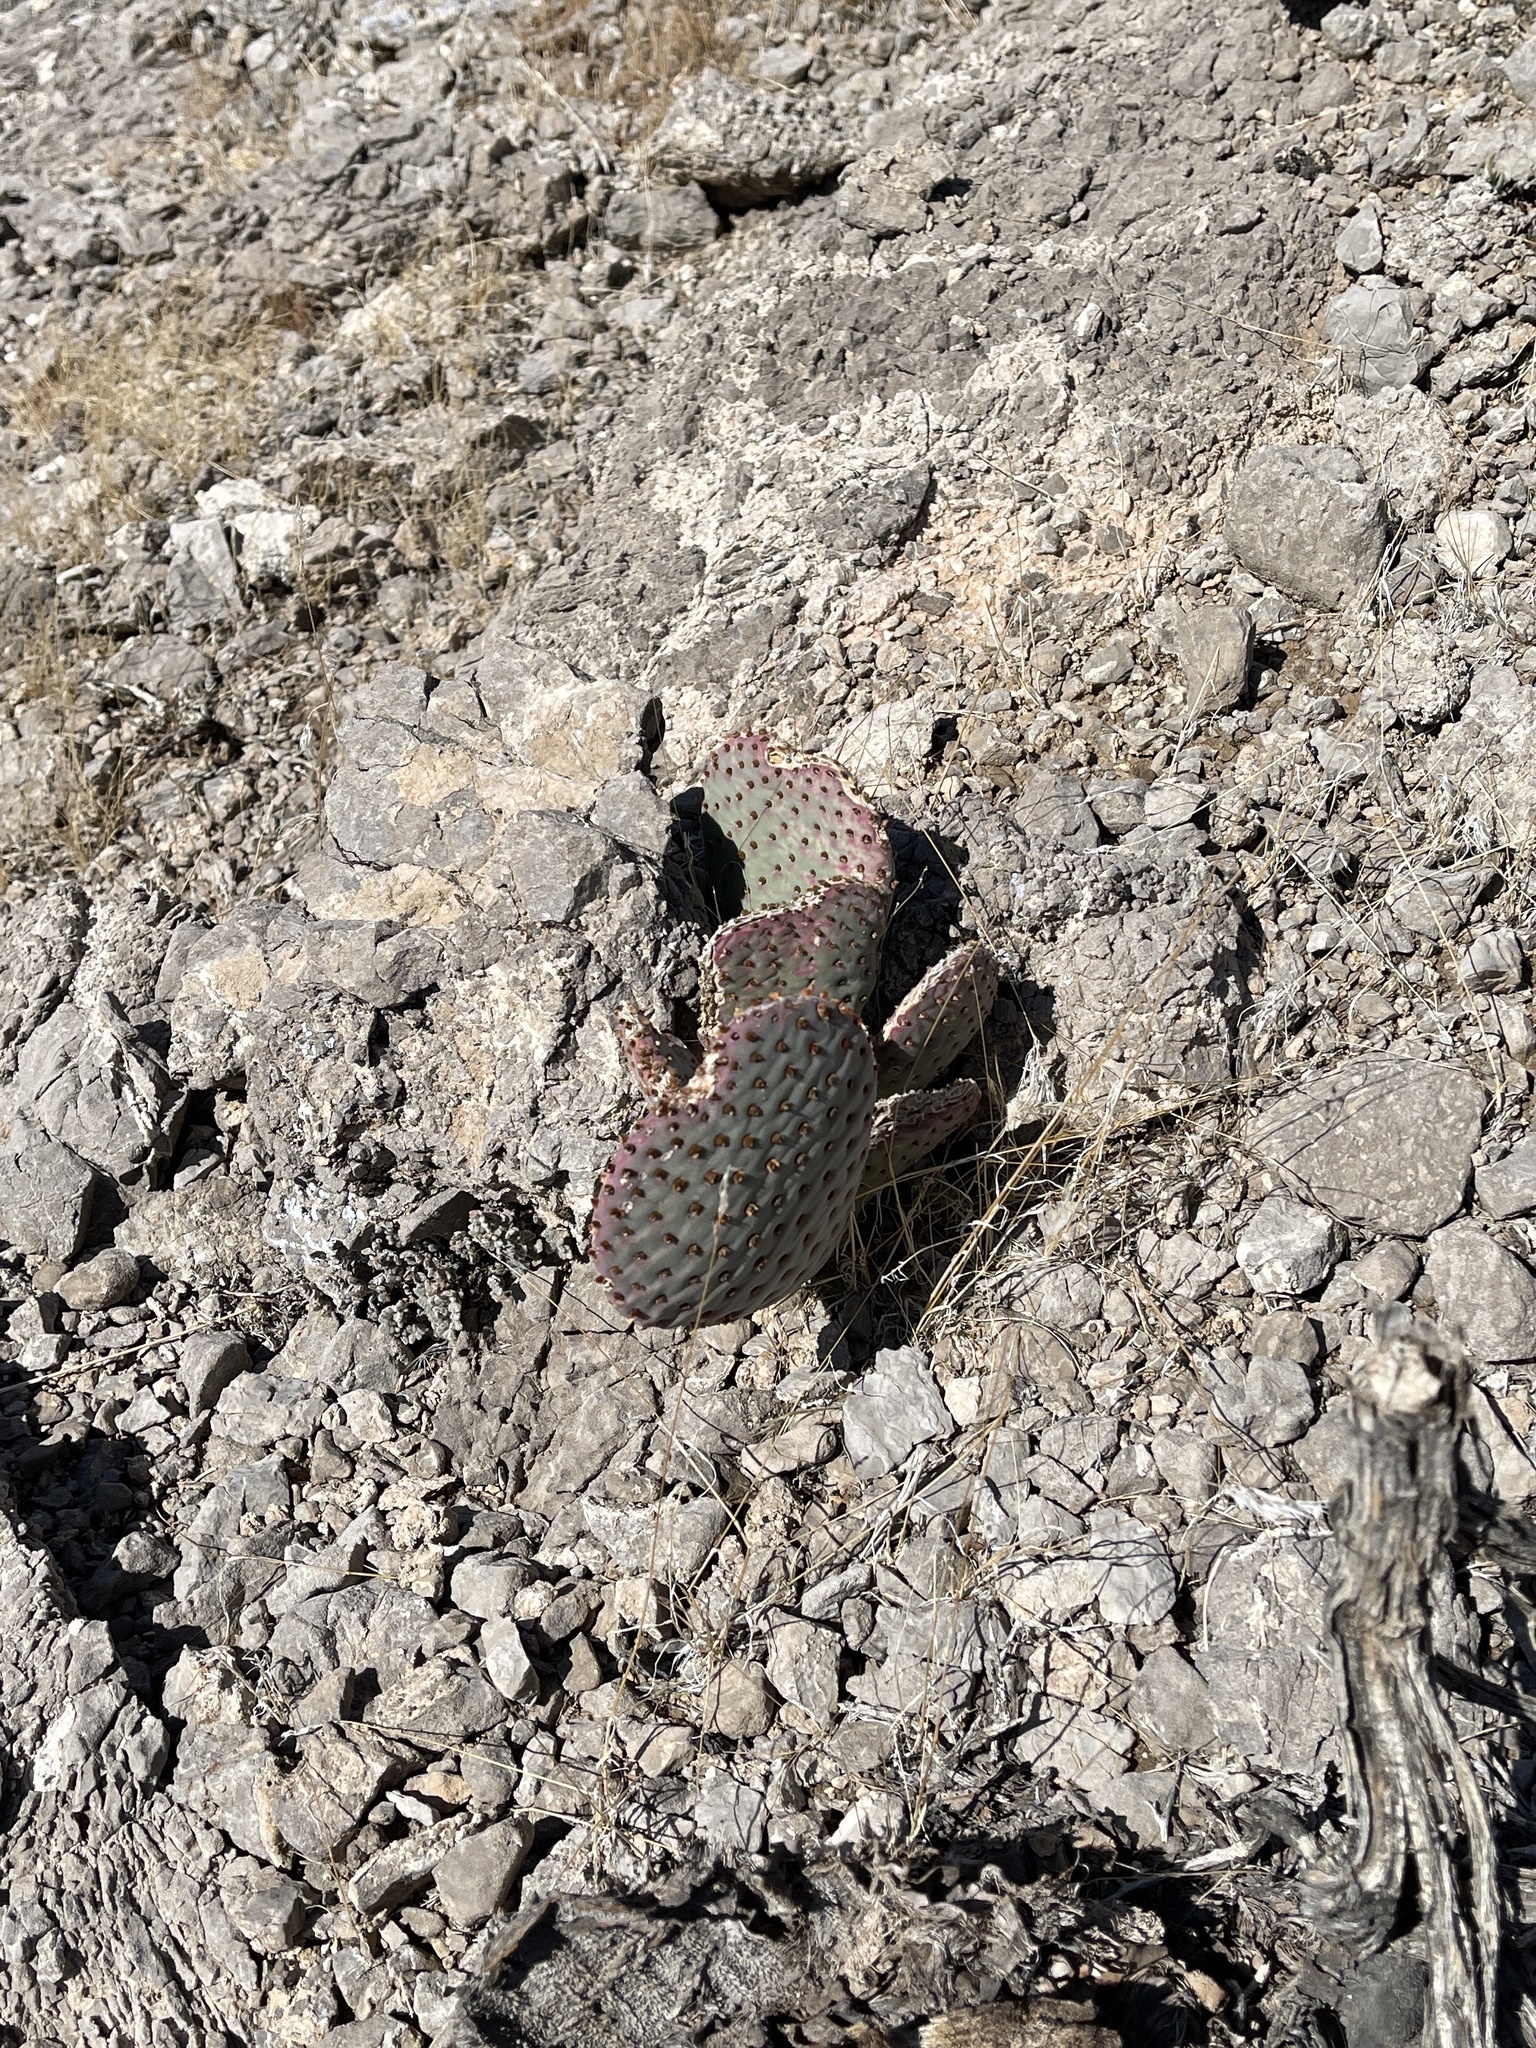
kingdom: Plantae
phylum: Tracheophyta
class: Magnoliopsida
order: Caryophyllales
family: Cactaceae
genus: Opuntia
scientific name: Opuntia basilaris
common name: Beavertail prickly-pear
